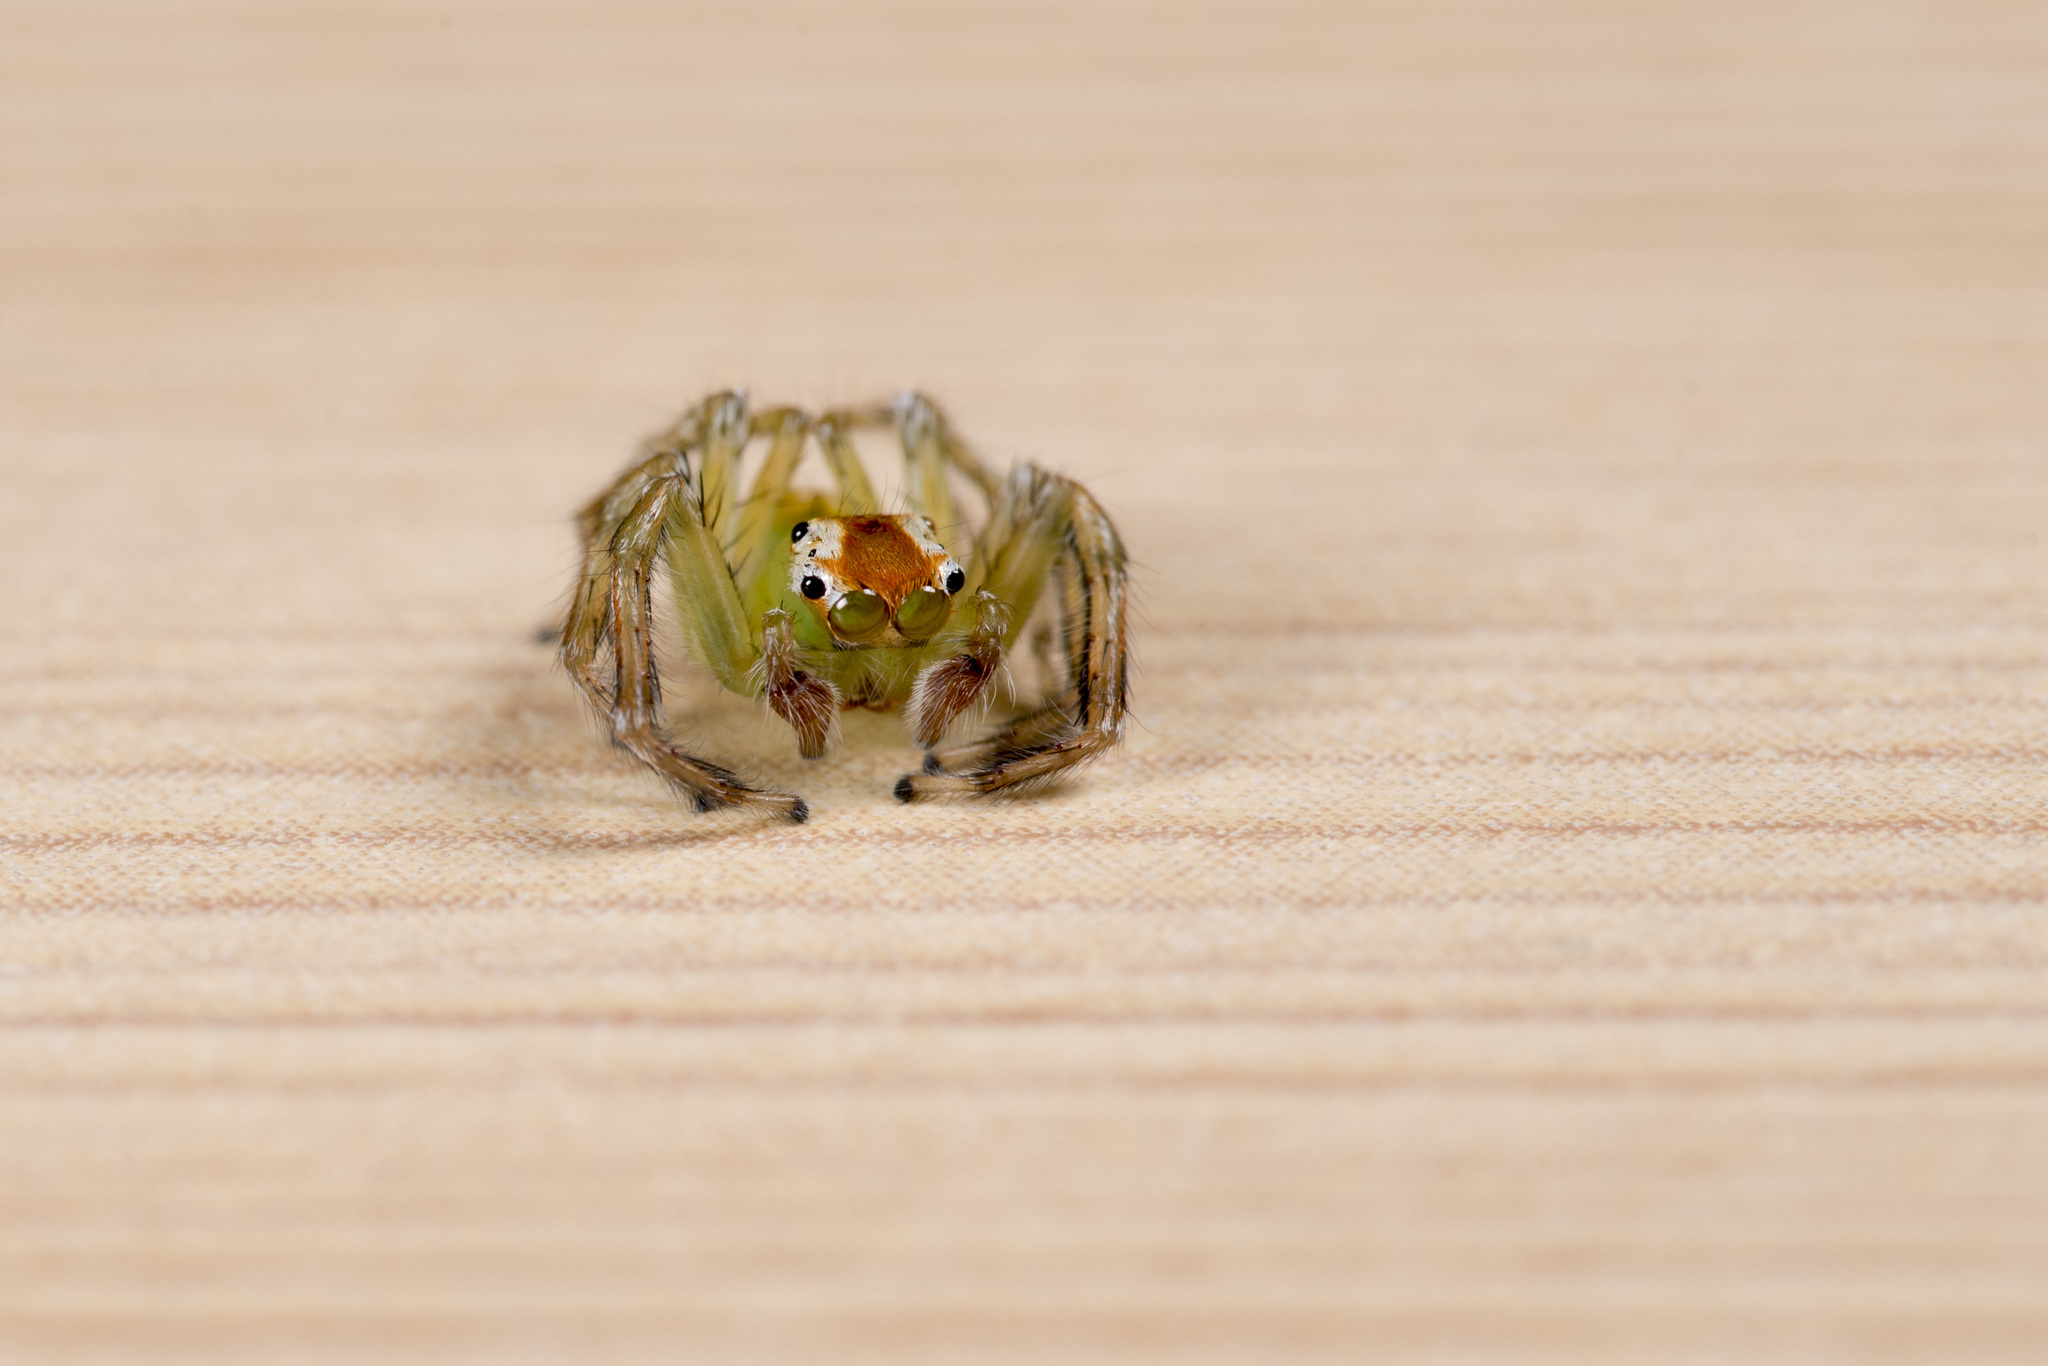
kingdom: Animalia
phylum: Arthropoda
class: Arachnida
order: Araneae
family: Salticidae
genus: Epeus
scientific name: Epeus glorius
